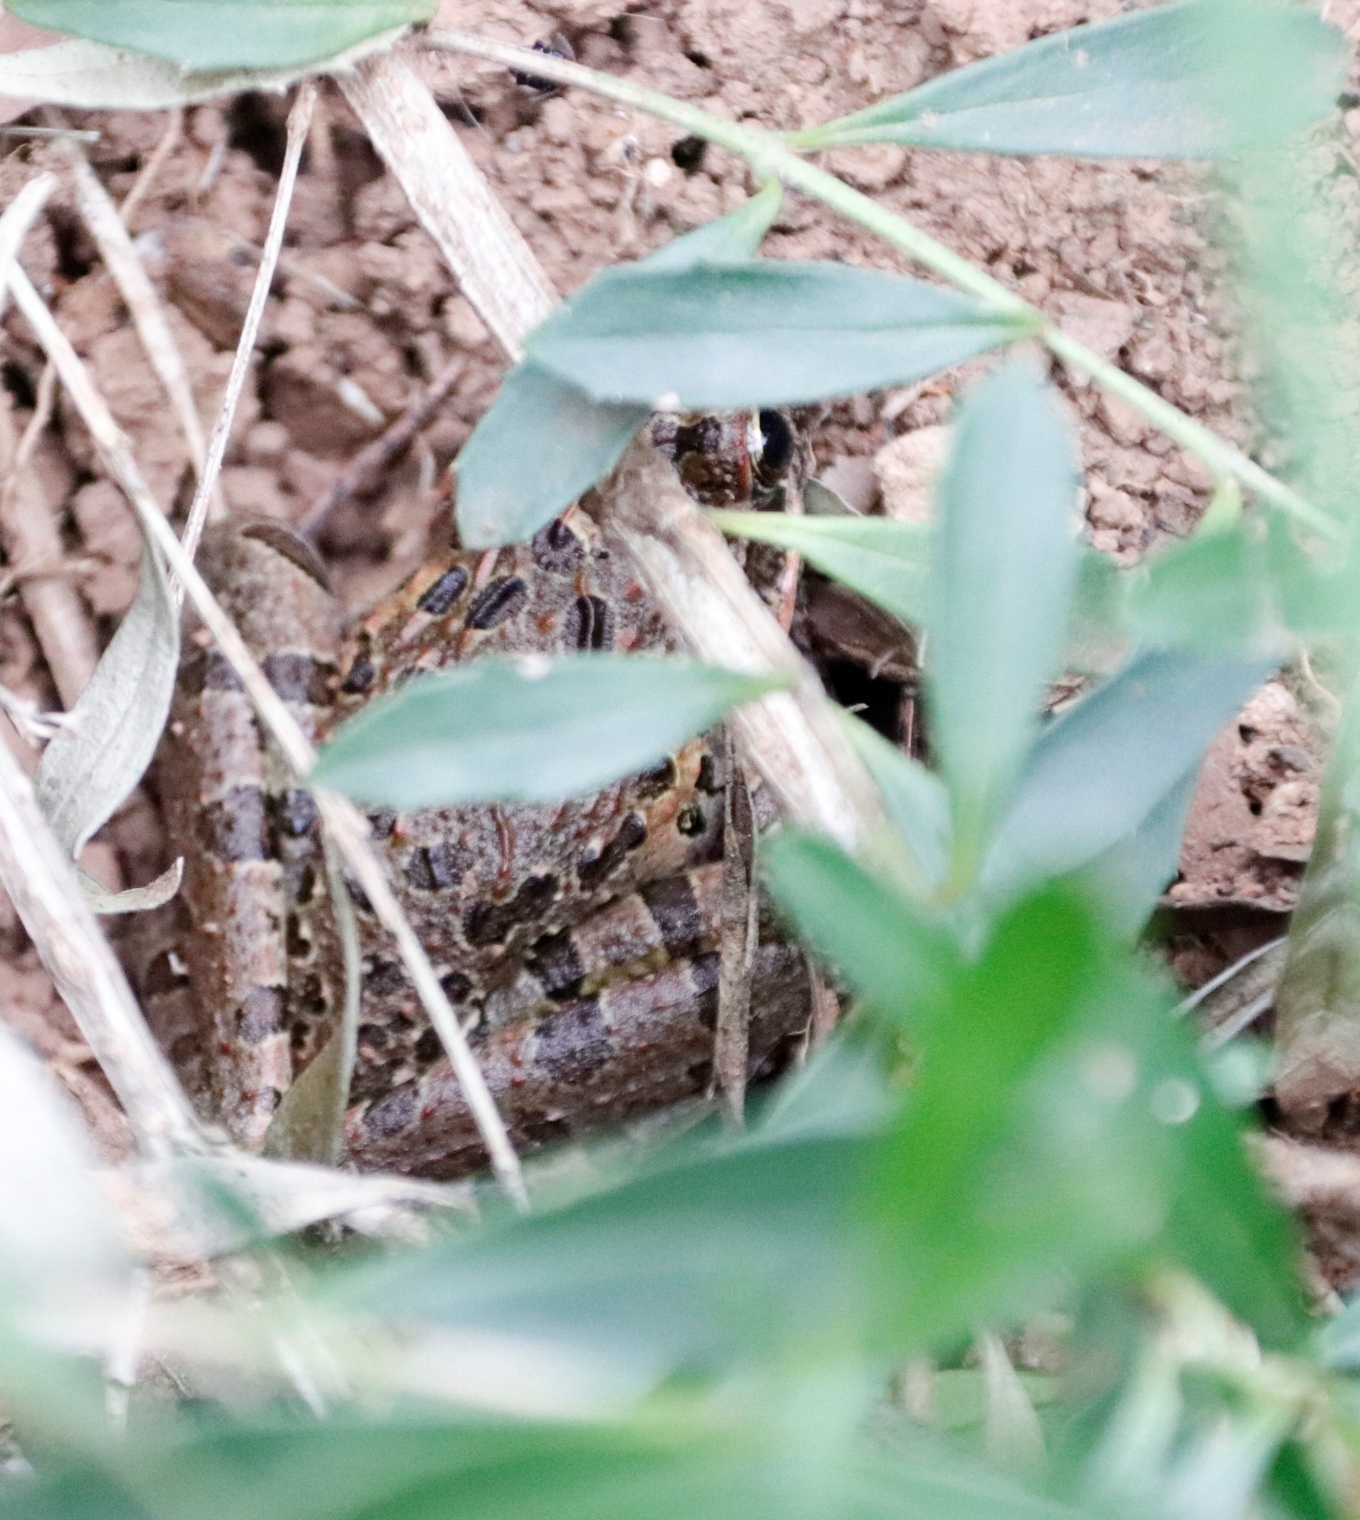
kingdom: Animalia
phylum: Chordata
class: Amphibia
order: Anura
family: Pyxicephalidae
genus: Strongylopus
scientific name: Strongylopus grayii
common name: Gray's stream frog
